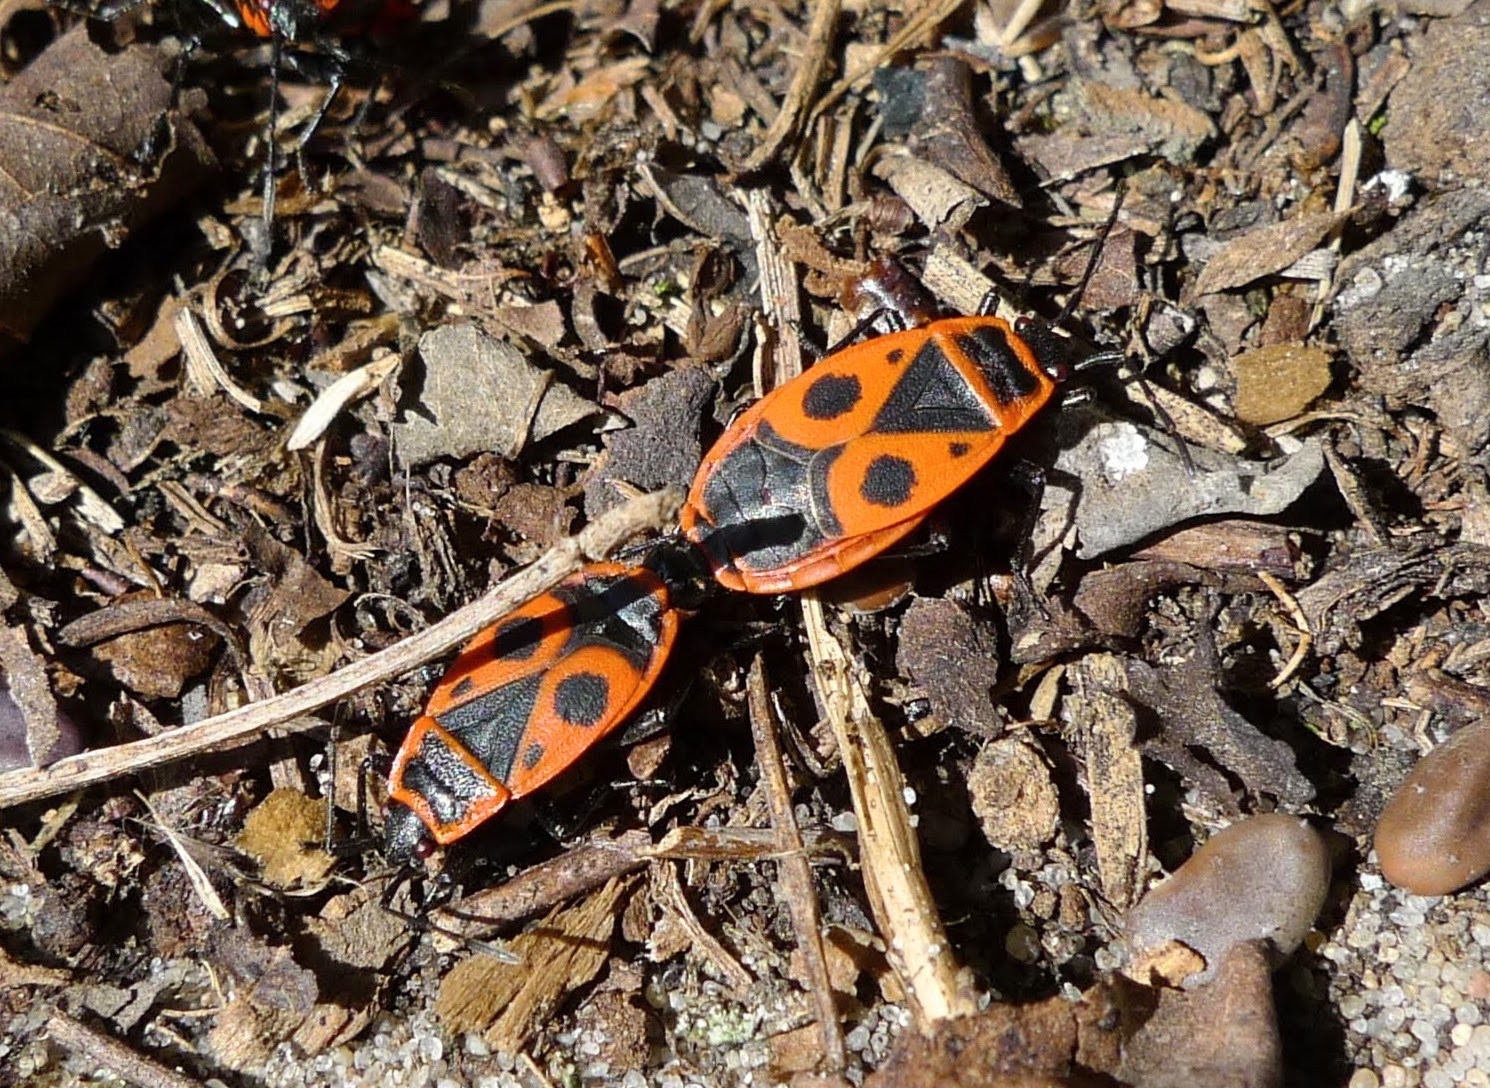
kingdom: Animalia
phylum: Arthropoda
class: Insecta
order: Hemiptera
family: Pyrrhocoridae
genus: Pyrrhocoris
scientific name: Pyrrhocoris apterus
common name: Firebug
